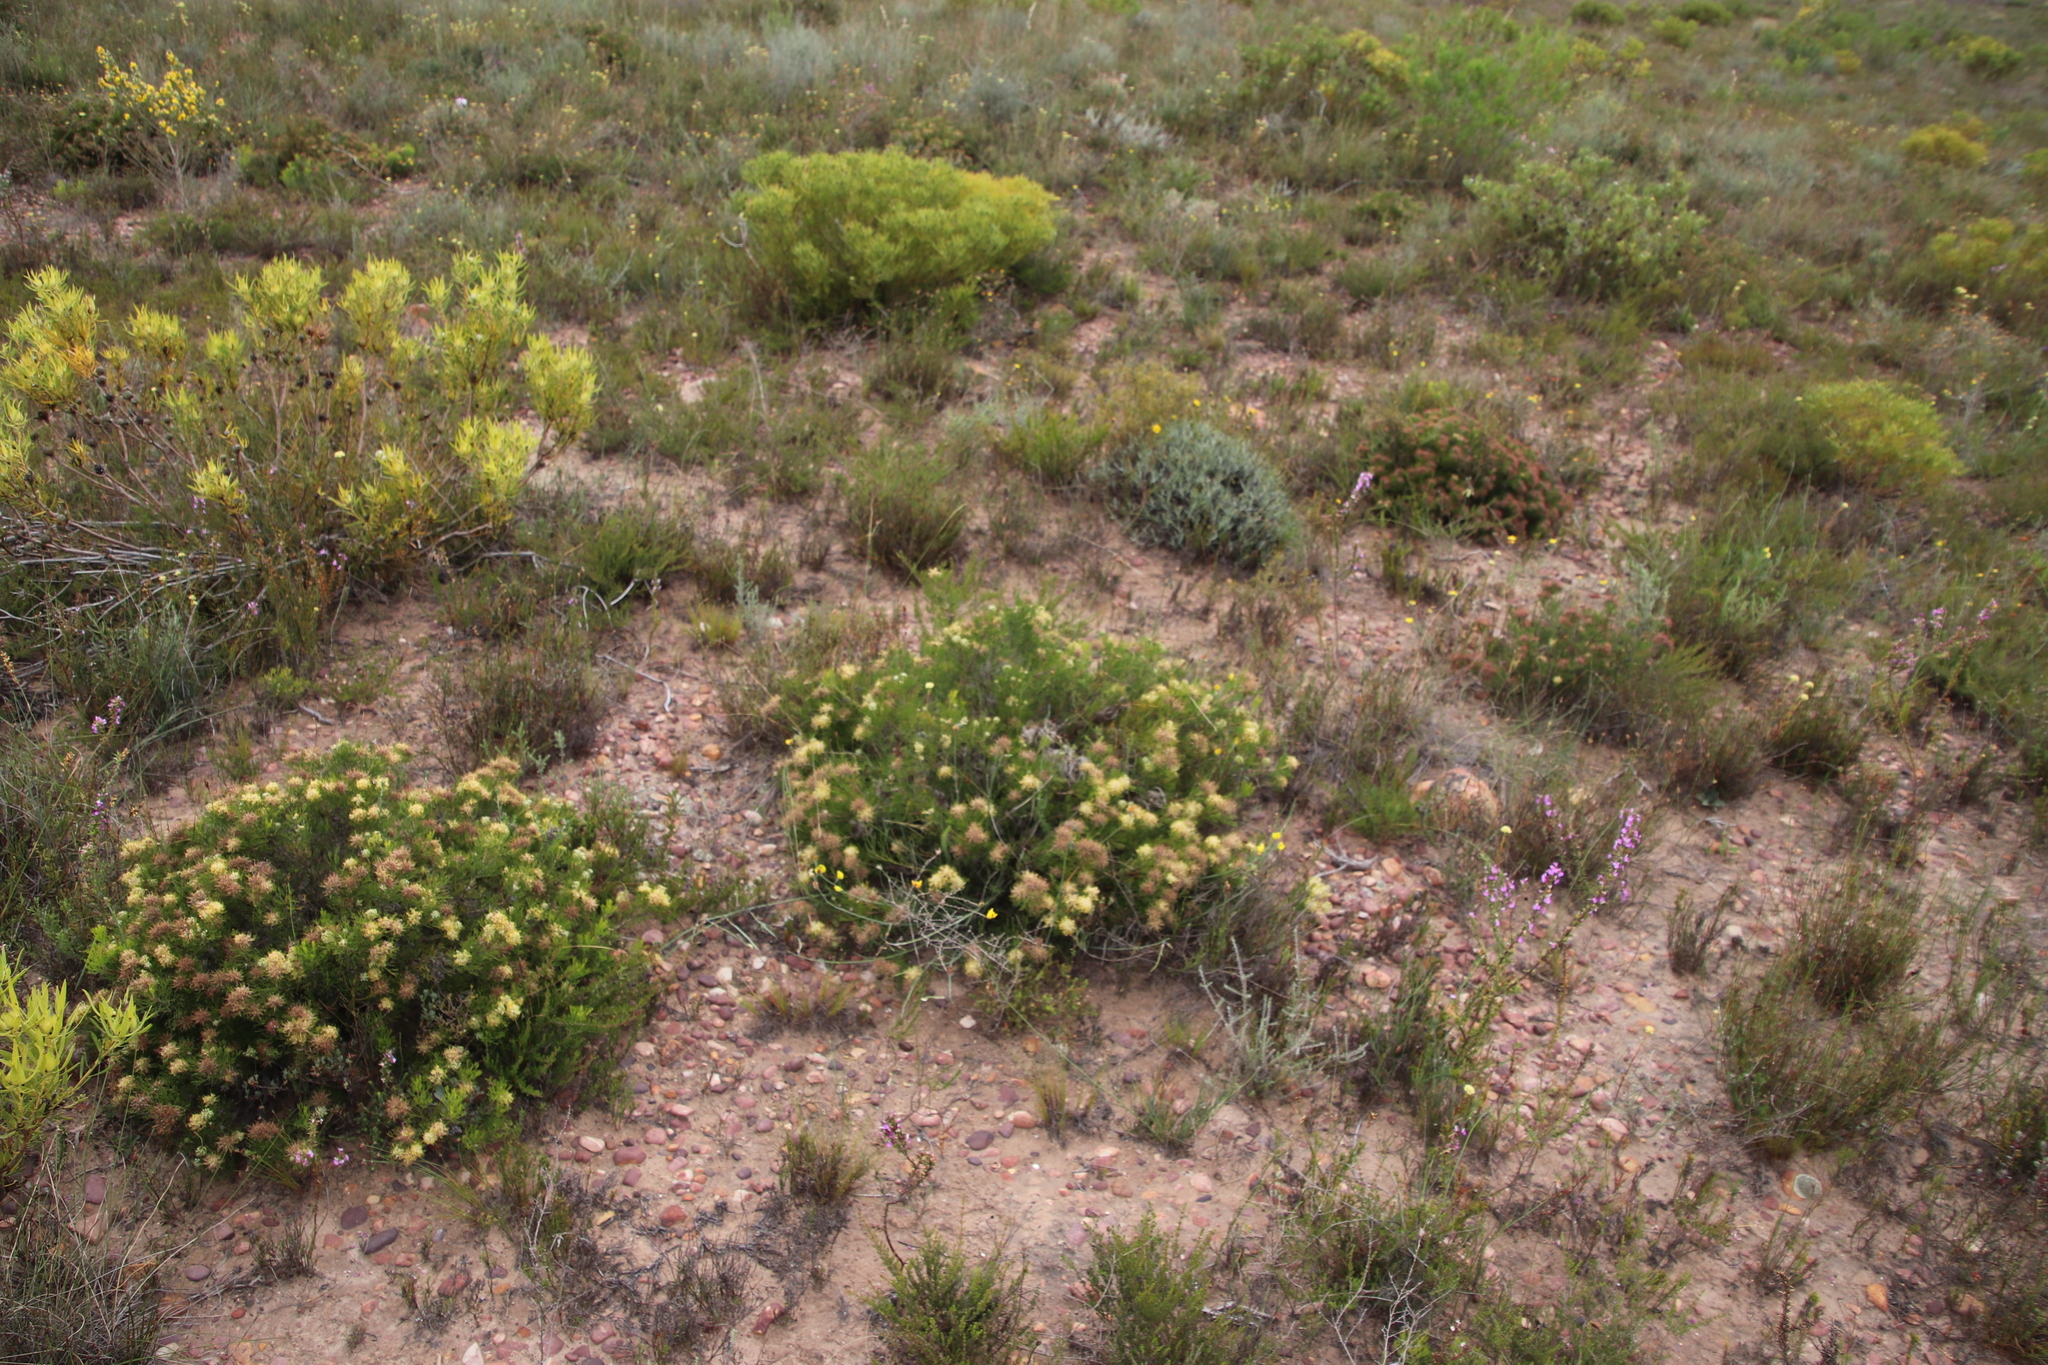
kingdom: Plantae
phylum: Tracheophyta
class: Magnoliopsida
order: Proteales
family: Proteaceae
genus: Serruria
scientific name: Serruria
